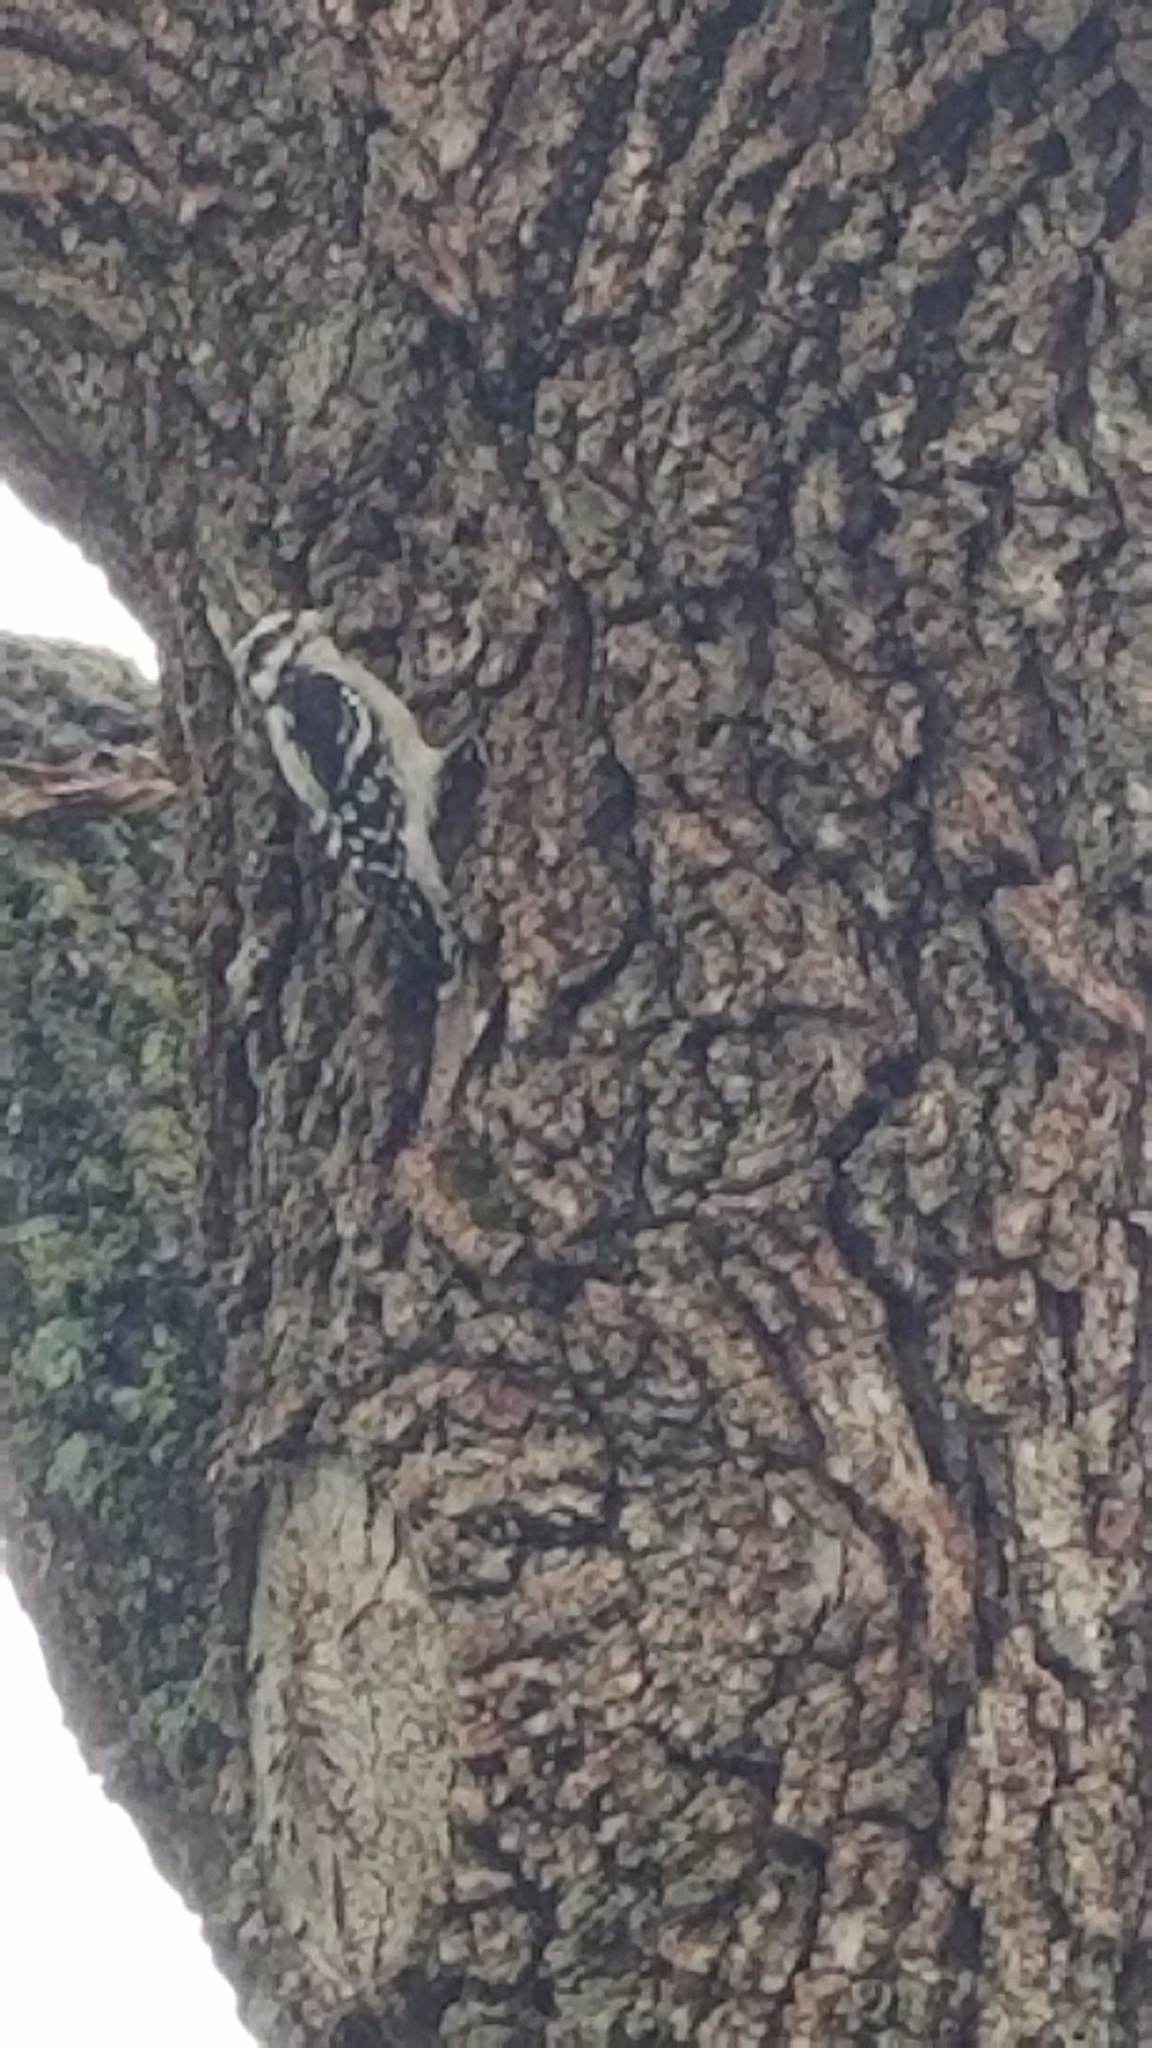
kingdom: Animalia
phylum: Chordata
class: Aves
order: Piciformes
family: Picidae
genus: Dryobates
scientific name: Dryobates pubescens
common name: Downy woodpecker
